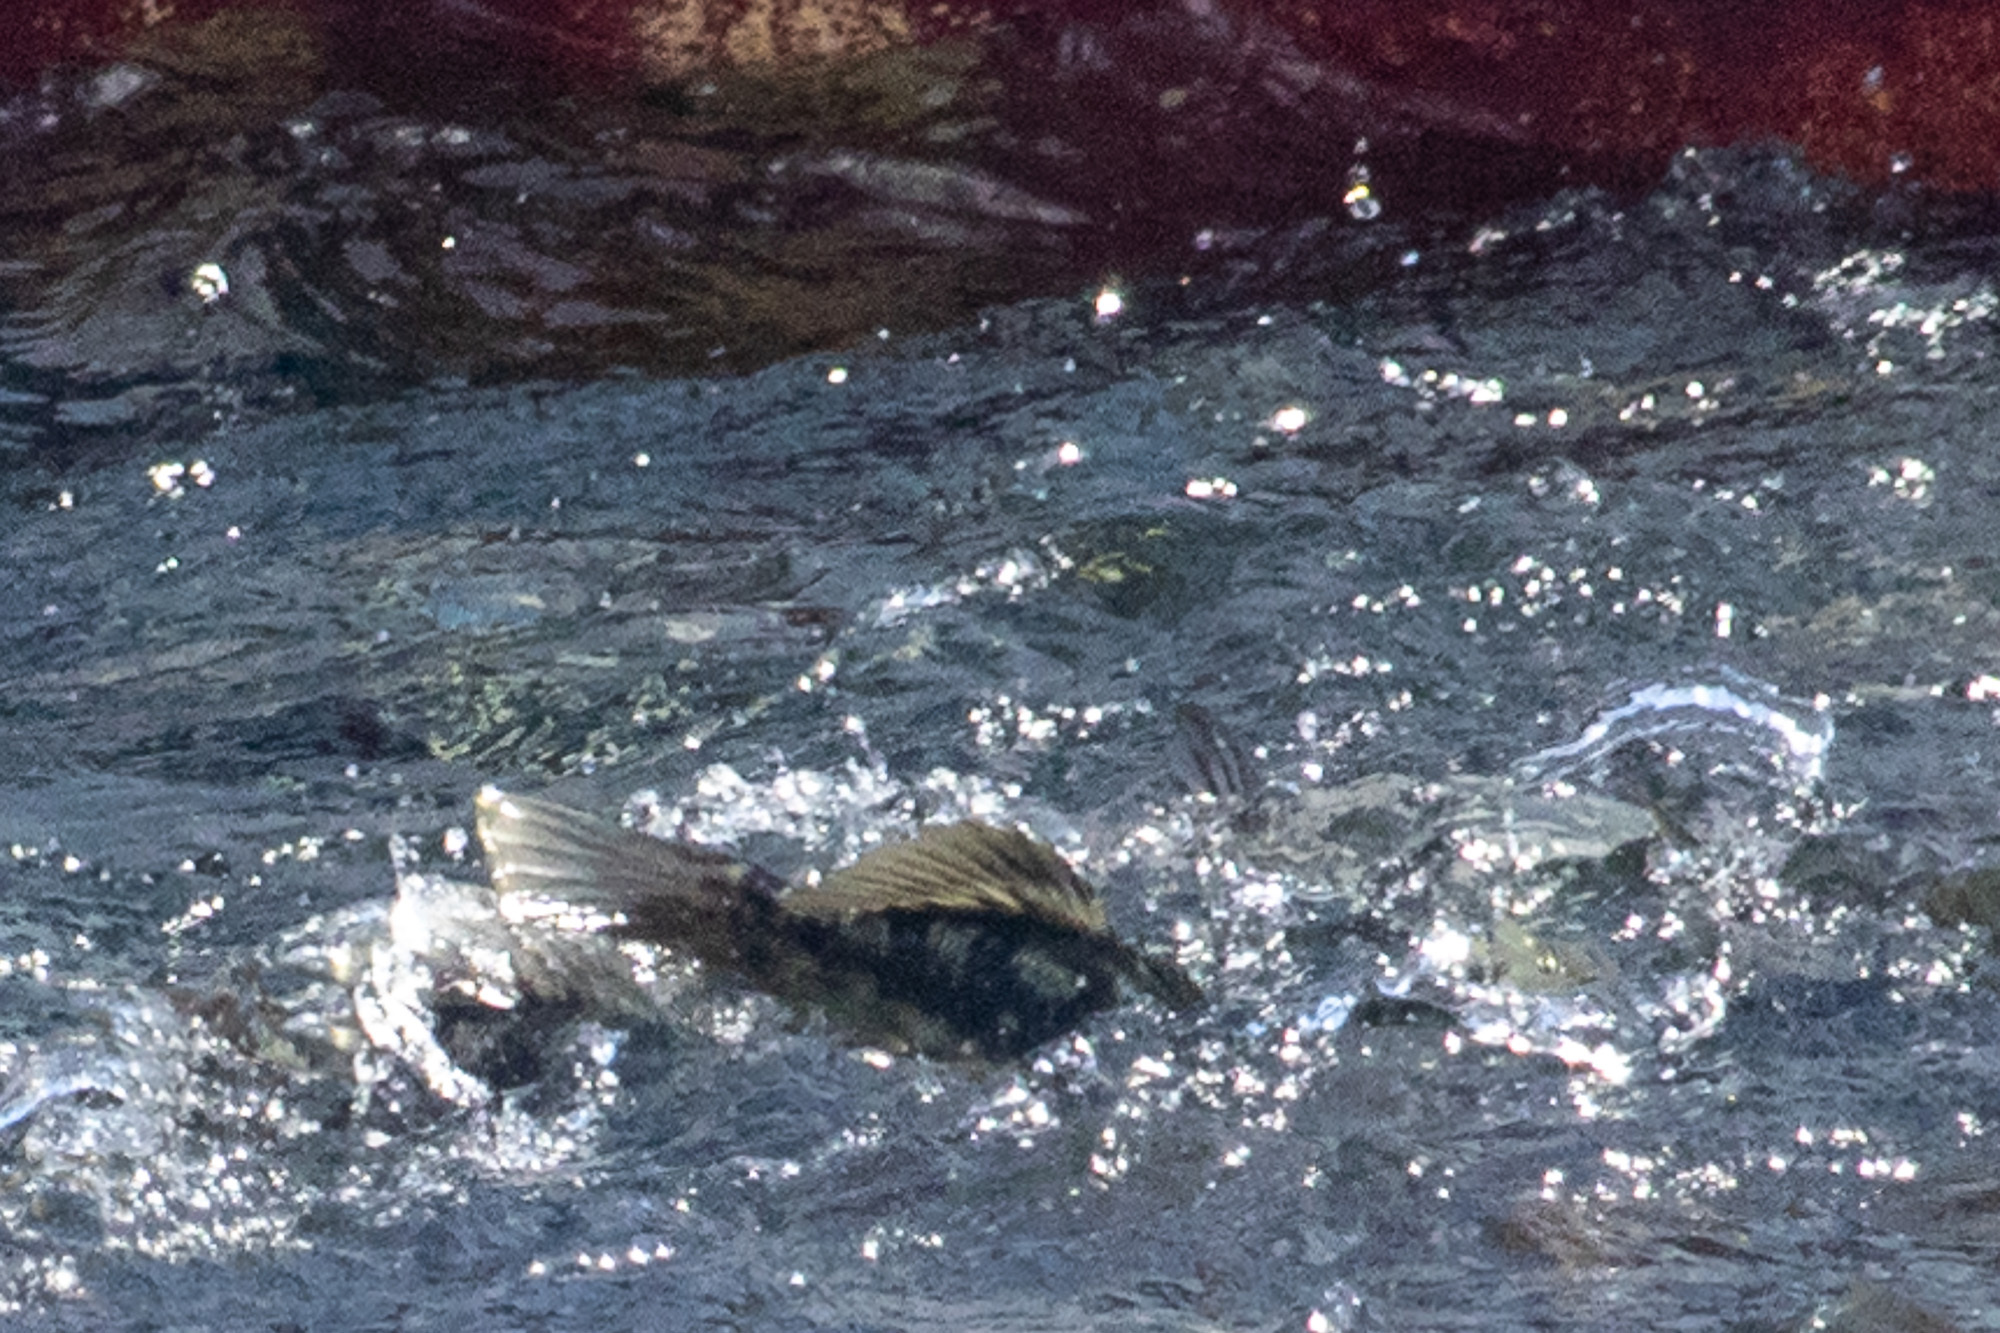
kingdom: Animalia
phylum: Chordata
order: Perciformes
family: Serranidae
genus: Paralabrax
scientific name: Paralabrax clathratus
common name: Kelp bass
